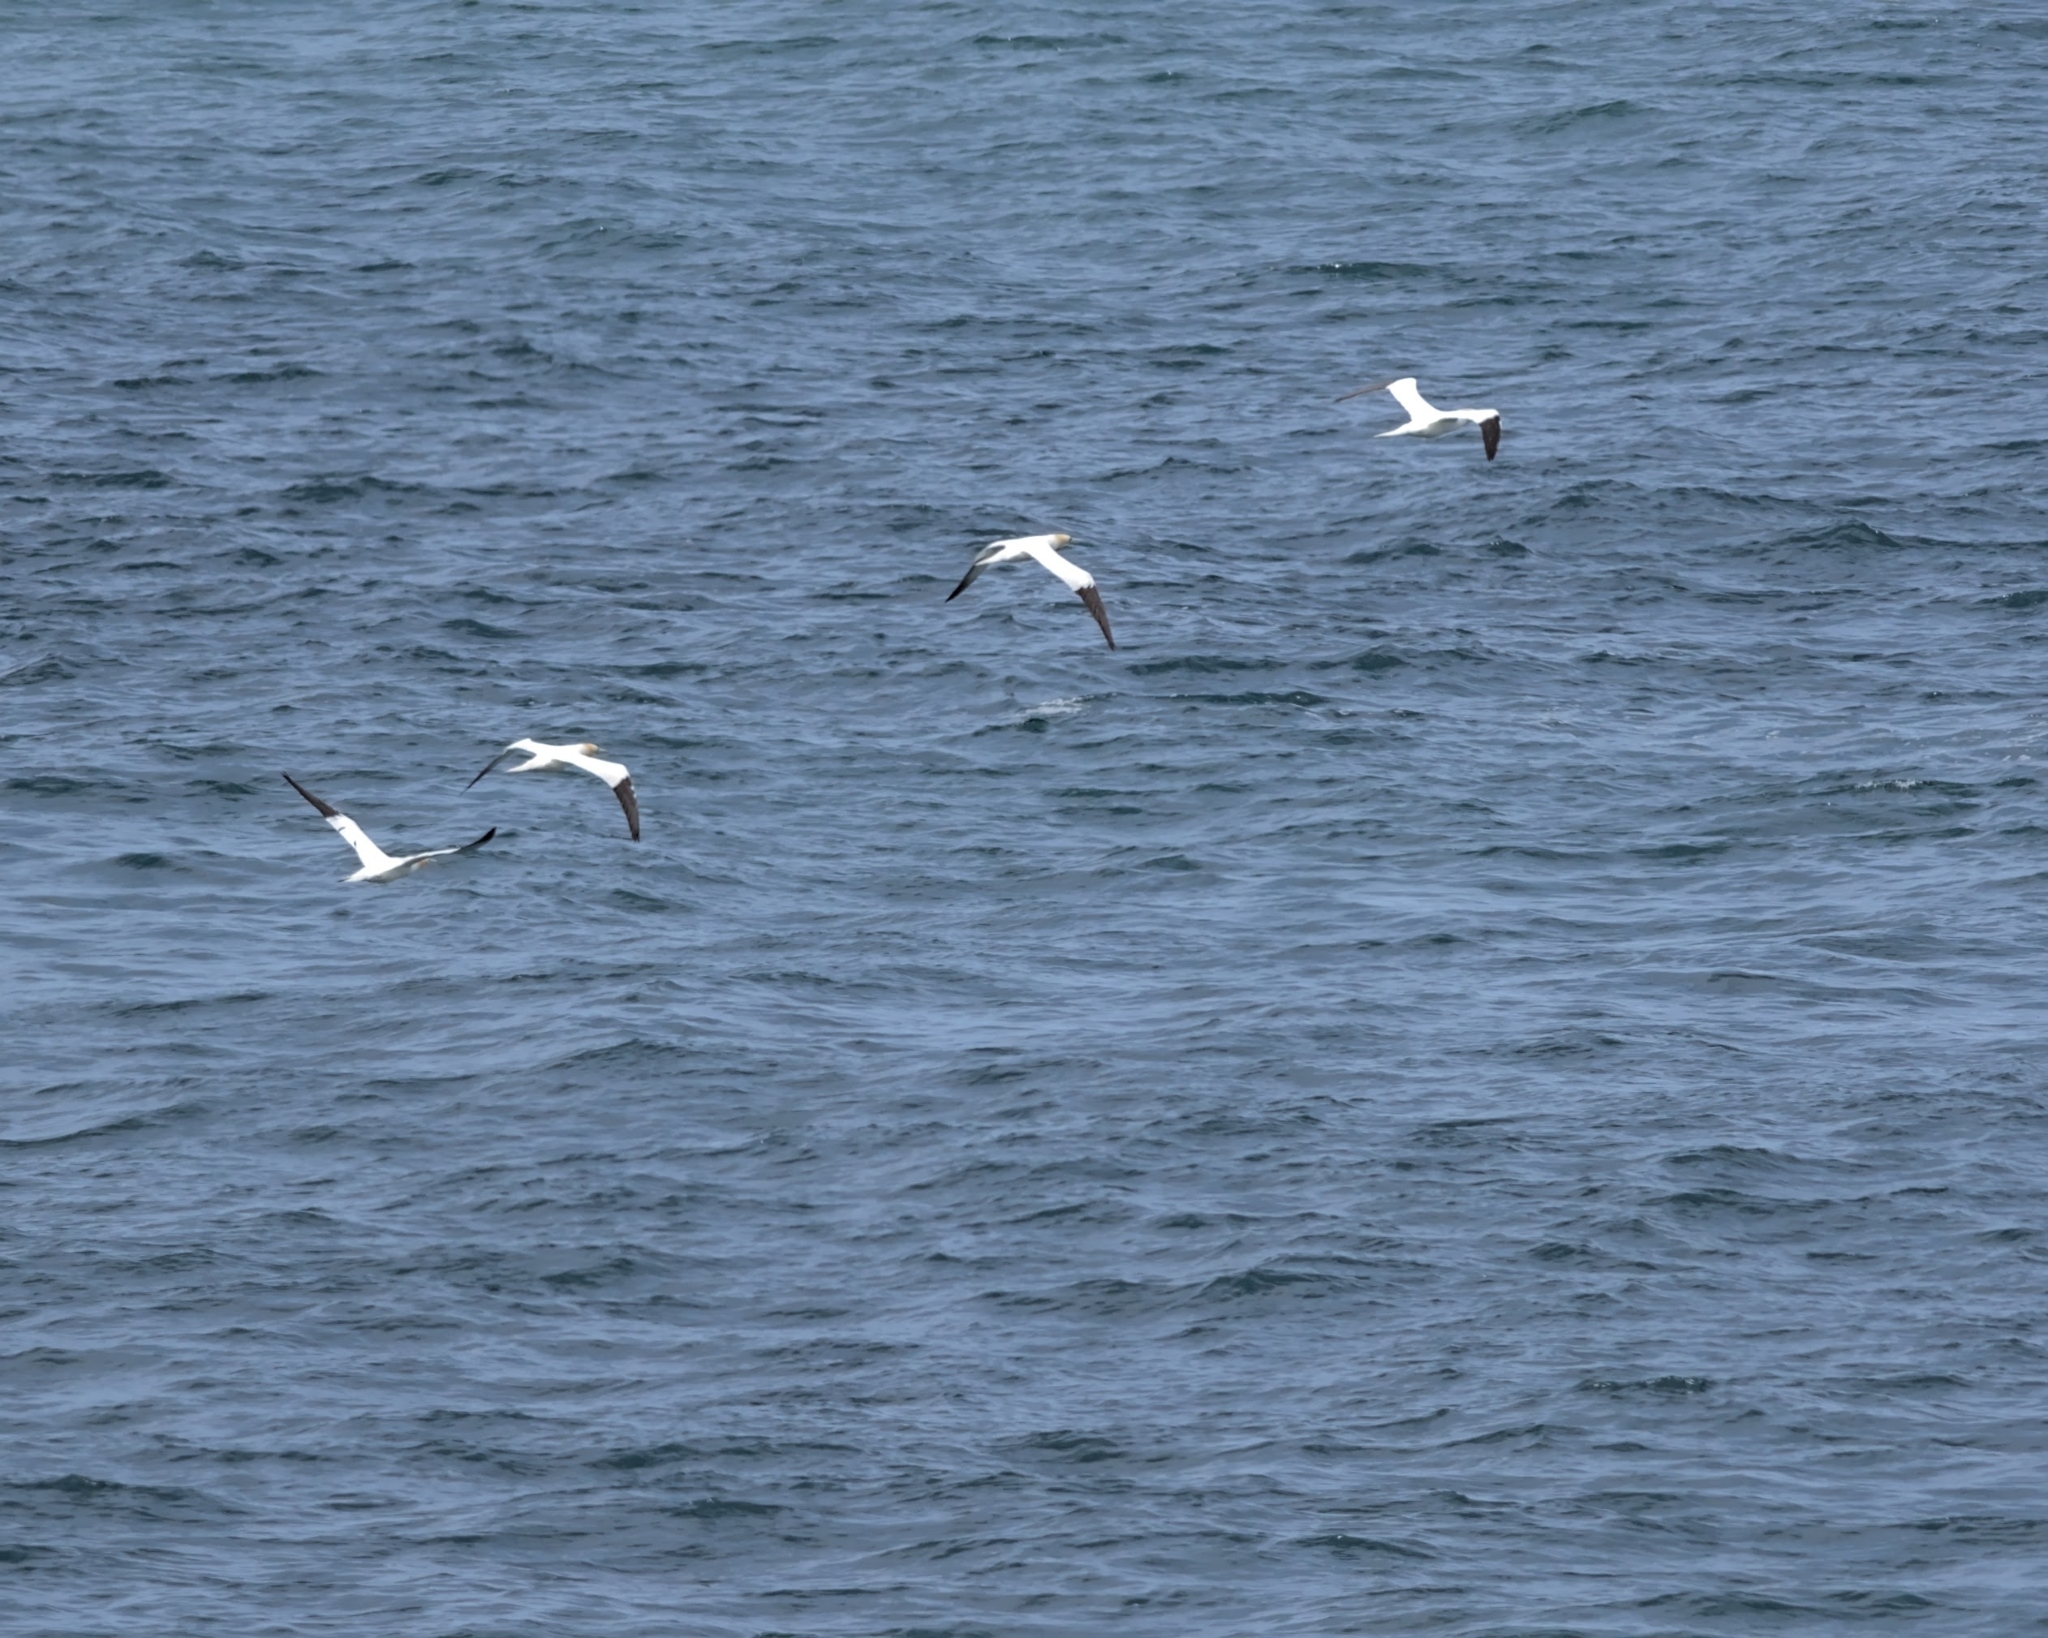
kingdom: Animalia
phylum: Chordata
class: Aves
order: Suliformes
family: Sulidae
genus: Morus
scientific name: Morus bassanus
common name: Northern gannet
